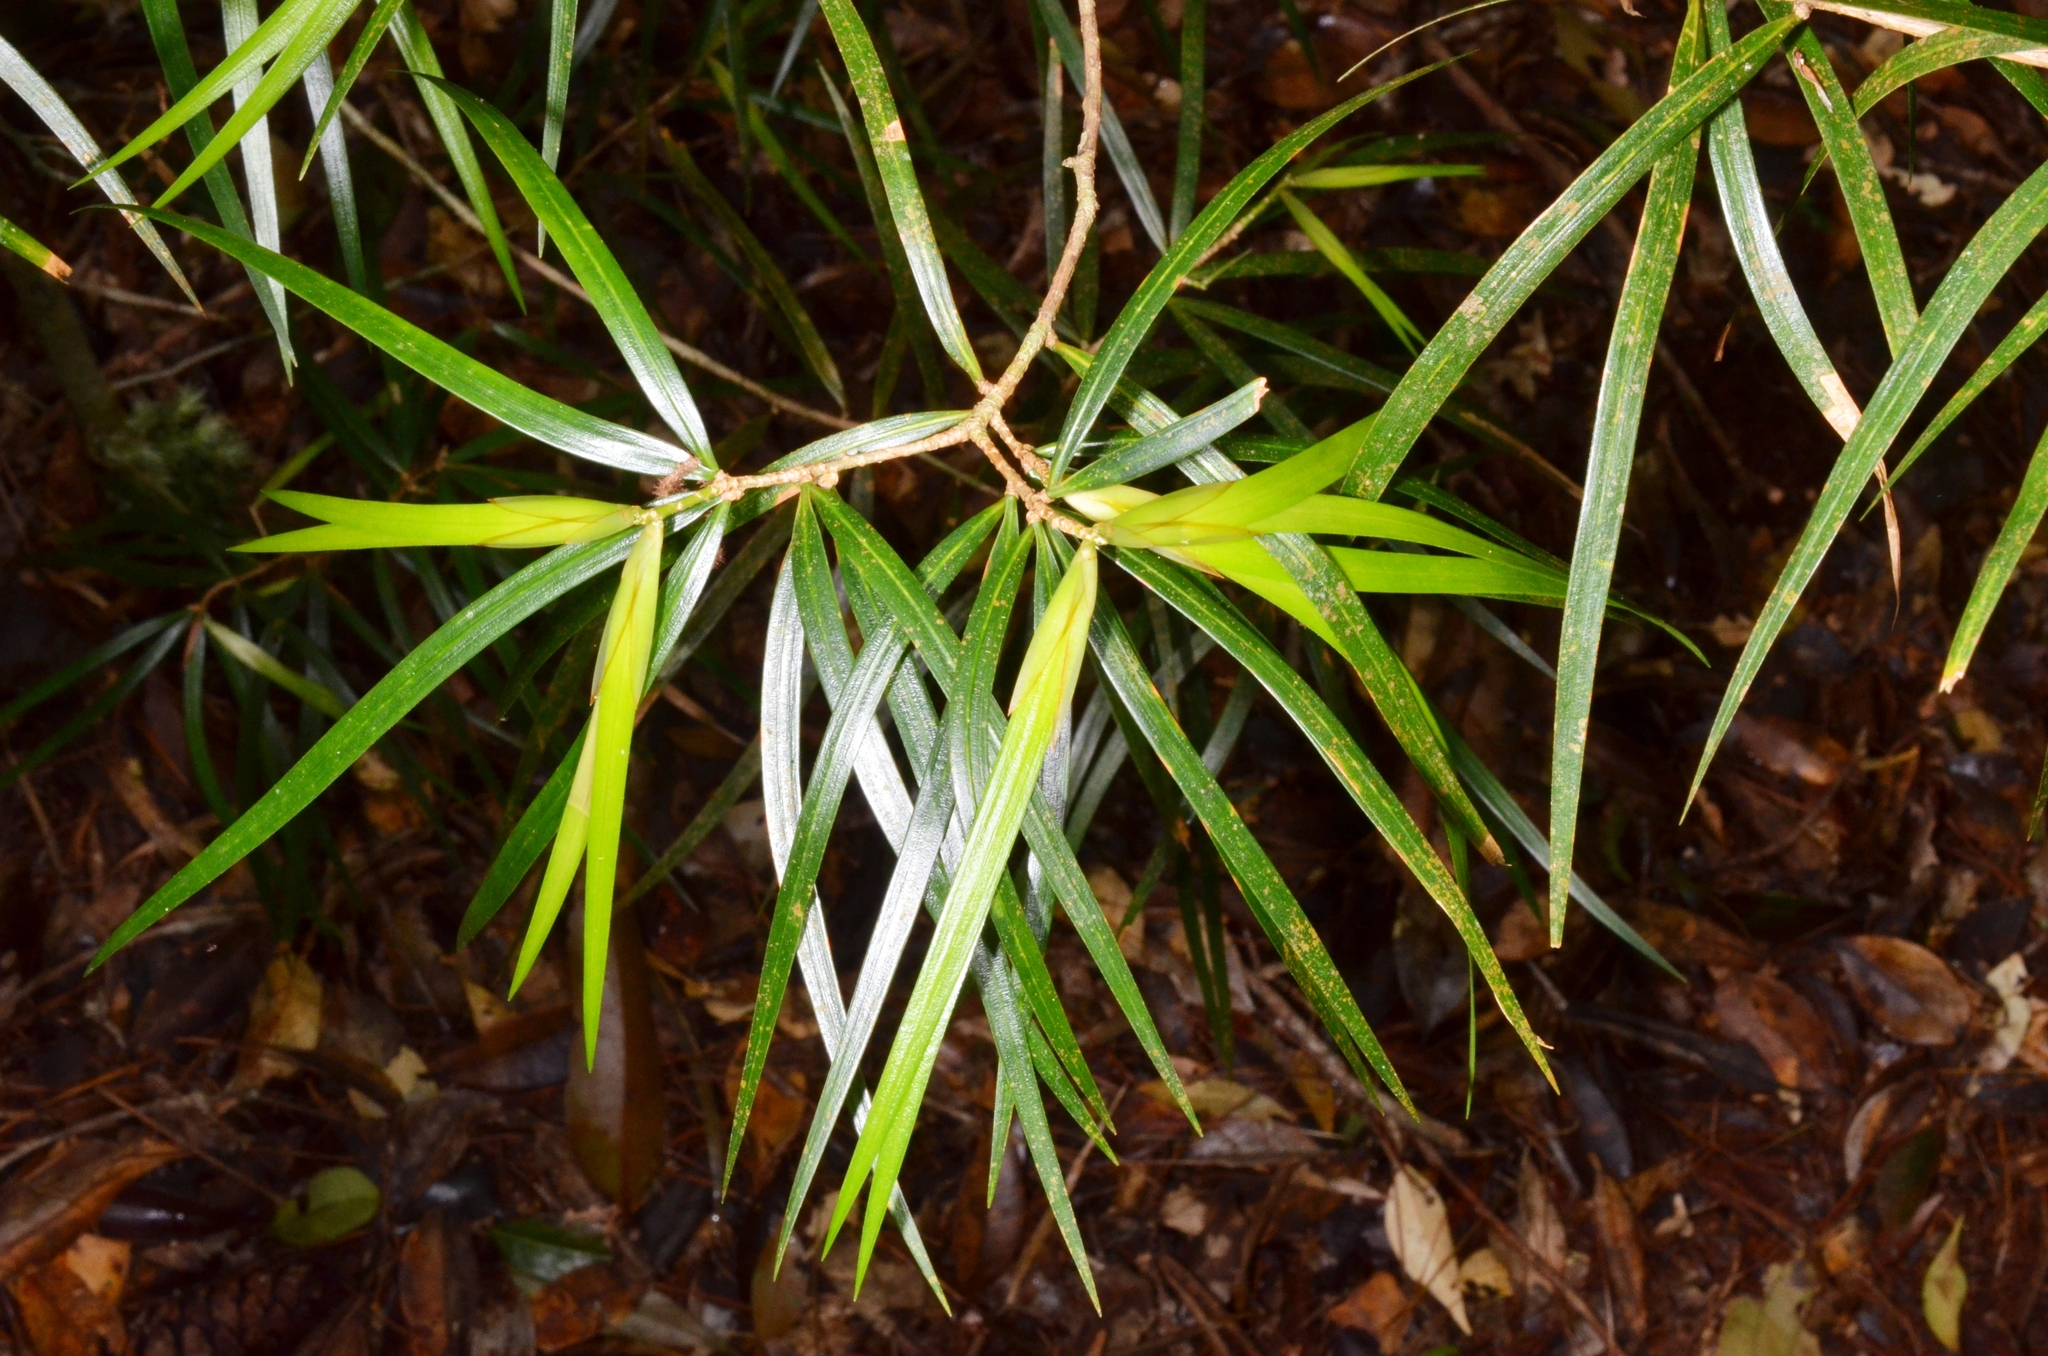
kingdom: Plantae
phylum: Tracheophyta
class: Pinopsida
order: Pinales
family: Pinaceae
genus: Pinus
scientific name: Pinus krempfii
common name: Krempf's pine
